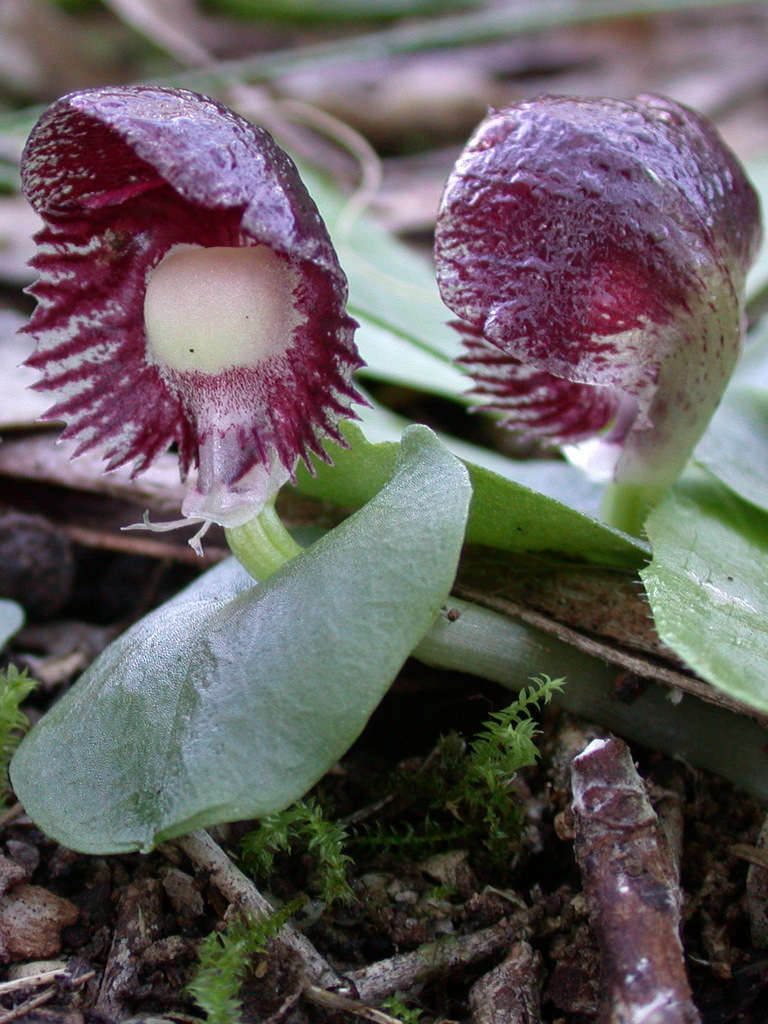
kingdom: Plantae
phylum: Tracheophyta
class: Liliopsida
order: Asparagales
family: Orchidaceae
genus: Corybas
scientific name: Corybas diemenicus
